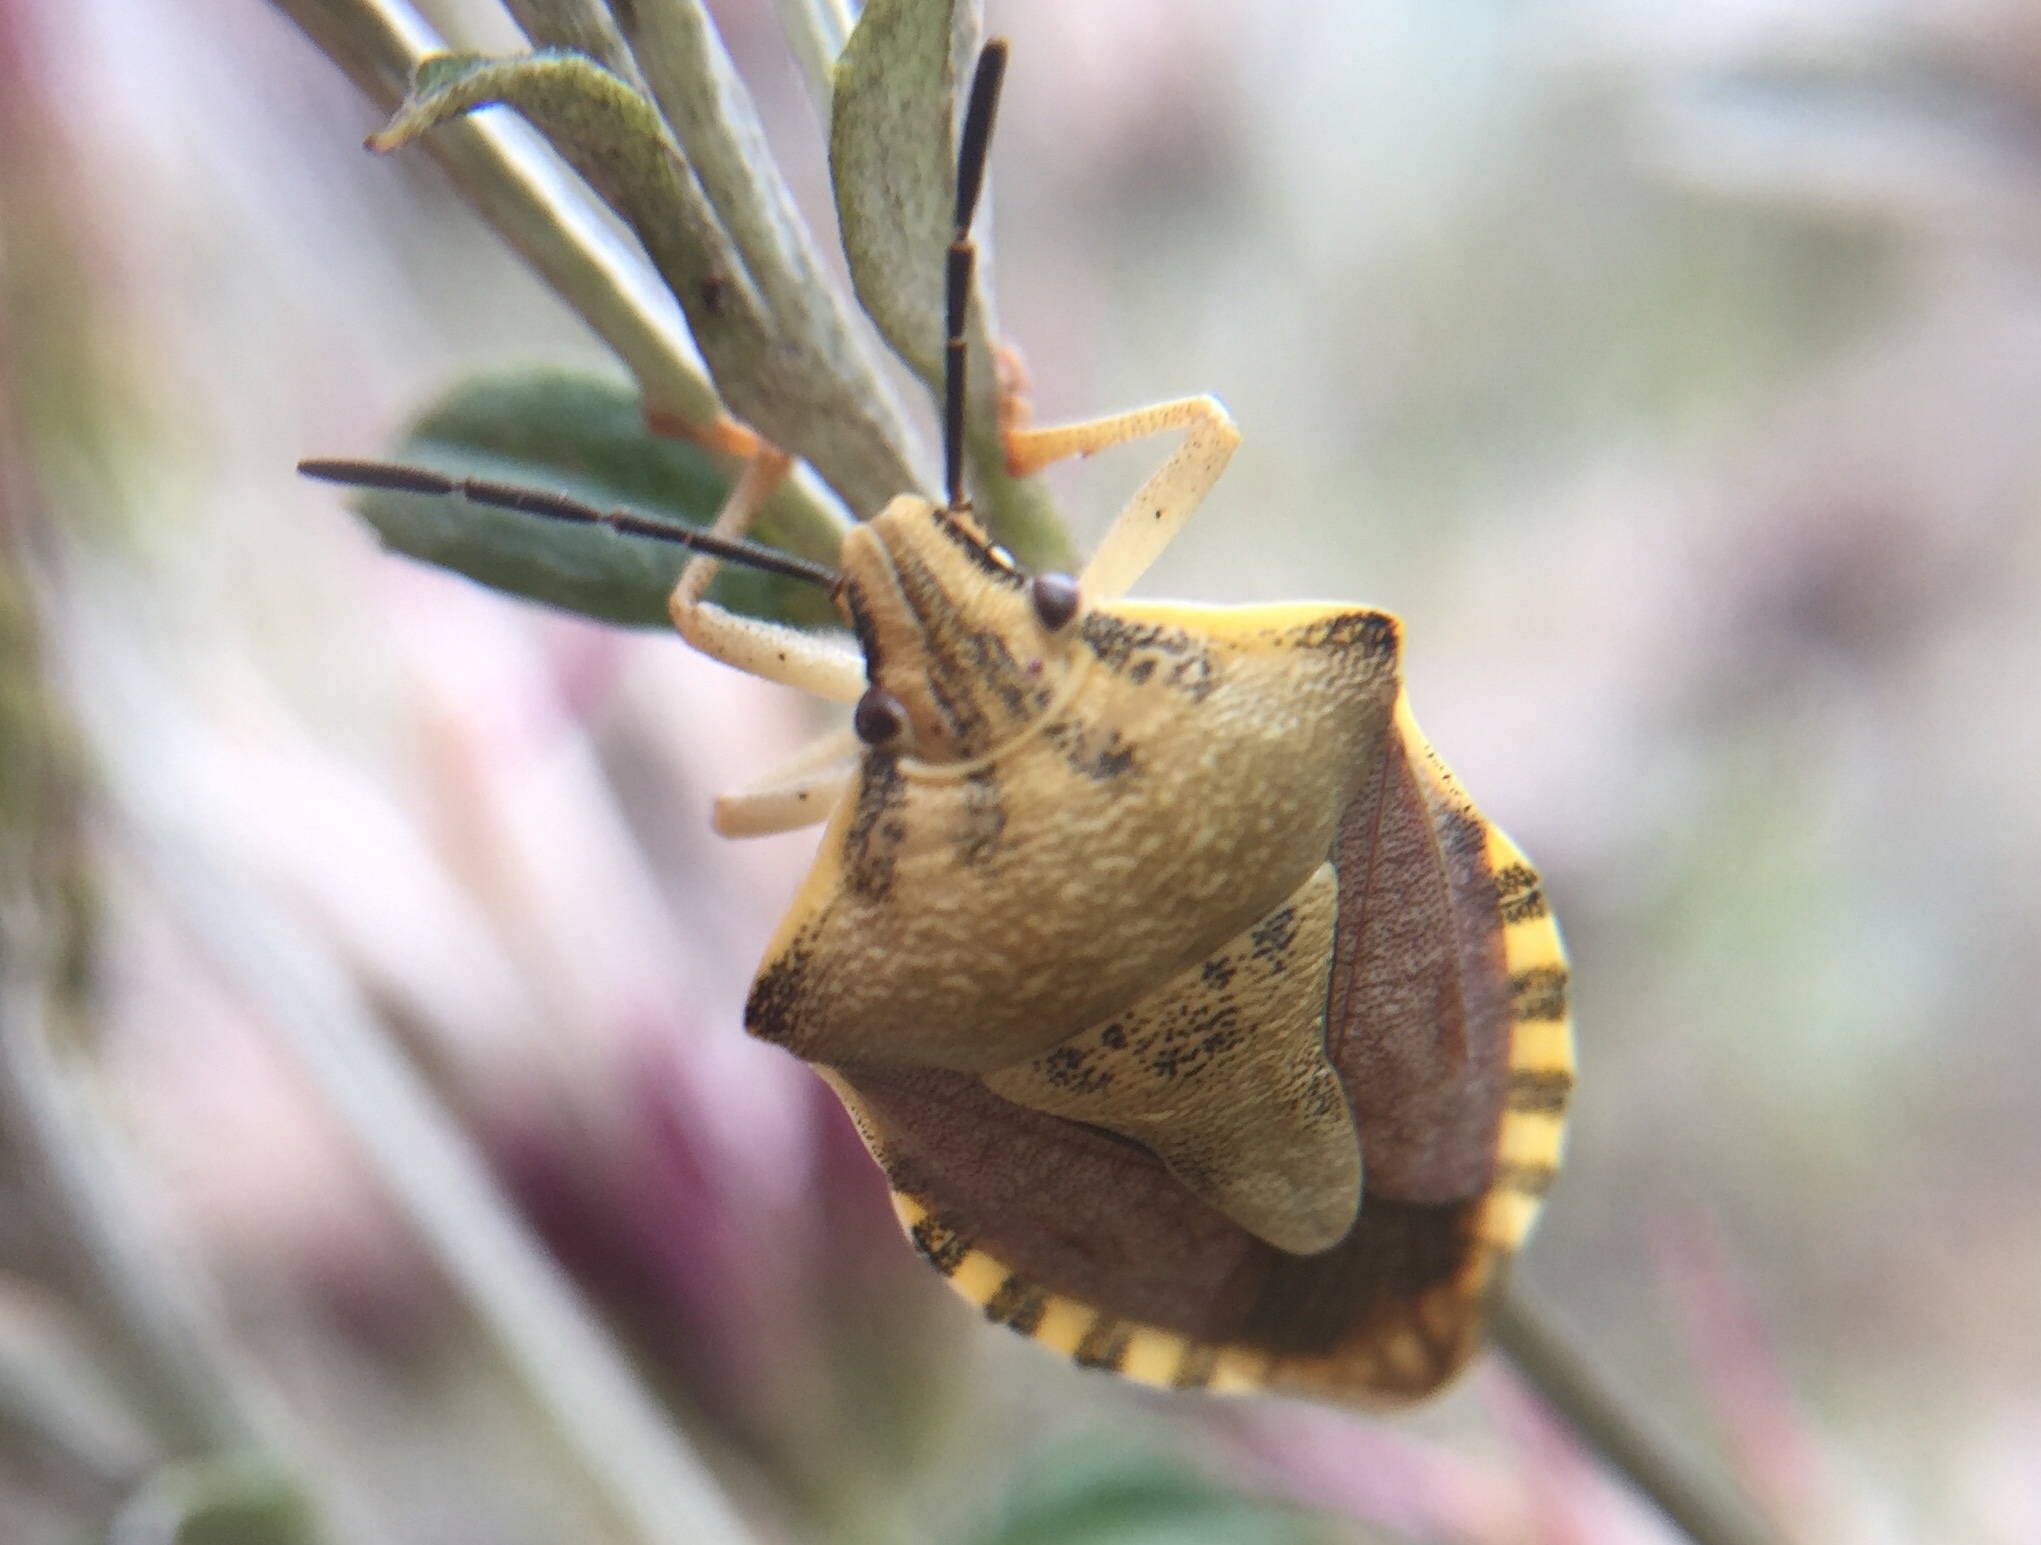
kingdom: Animalia
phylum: Arthropoda
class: Insecta
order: Hemiptera
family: Pentatomidae
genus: Carpocoris
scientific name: Carpocoris mediterraneus
